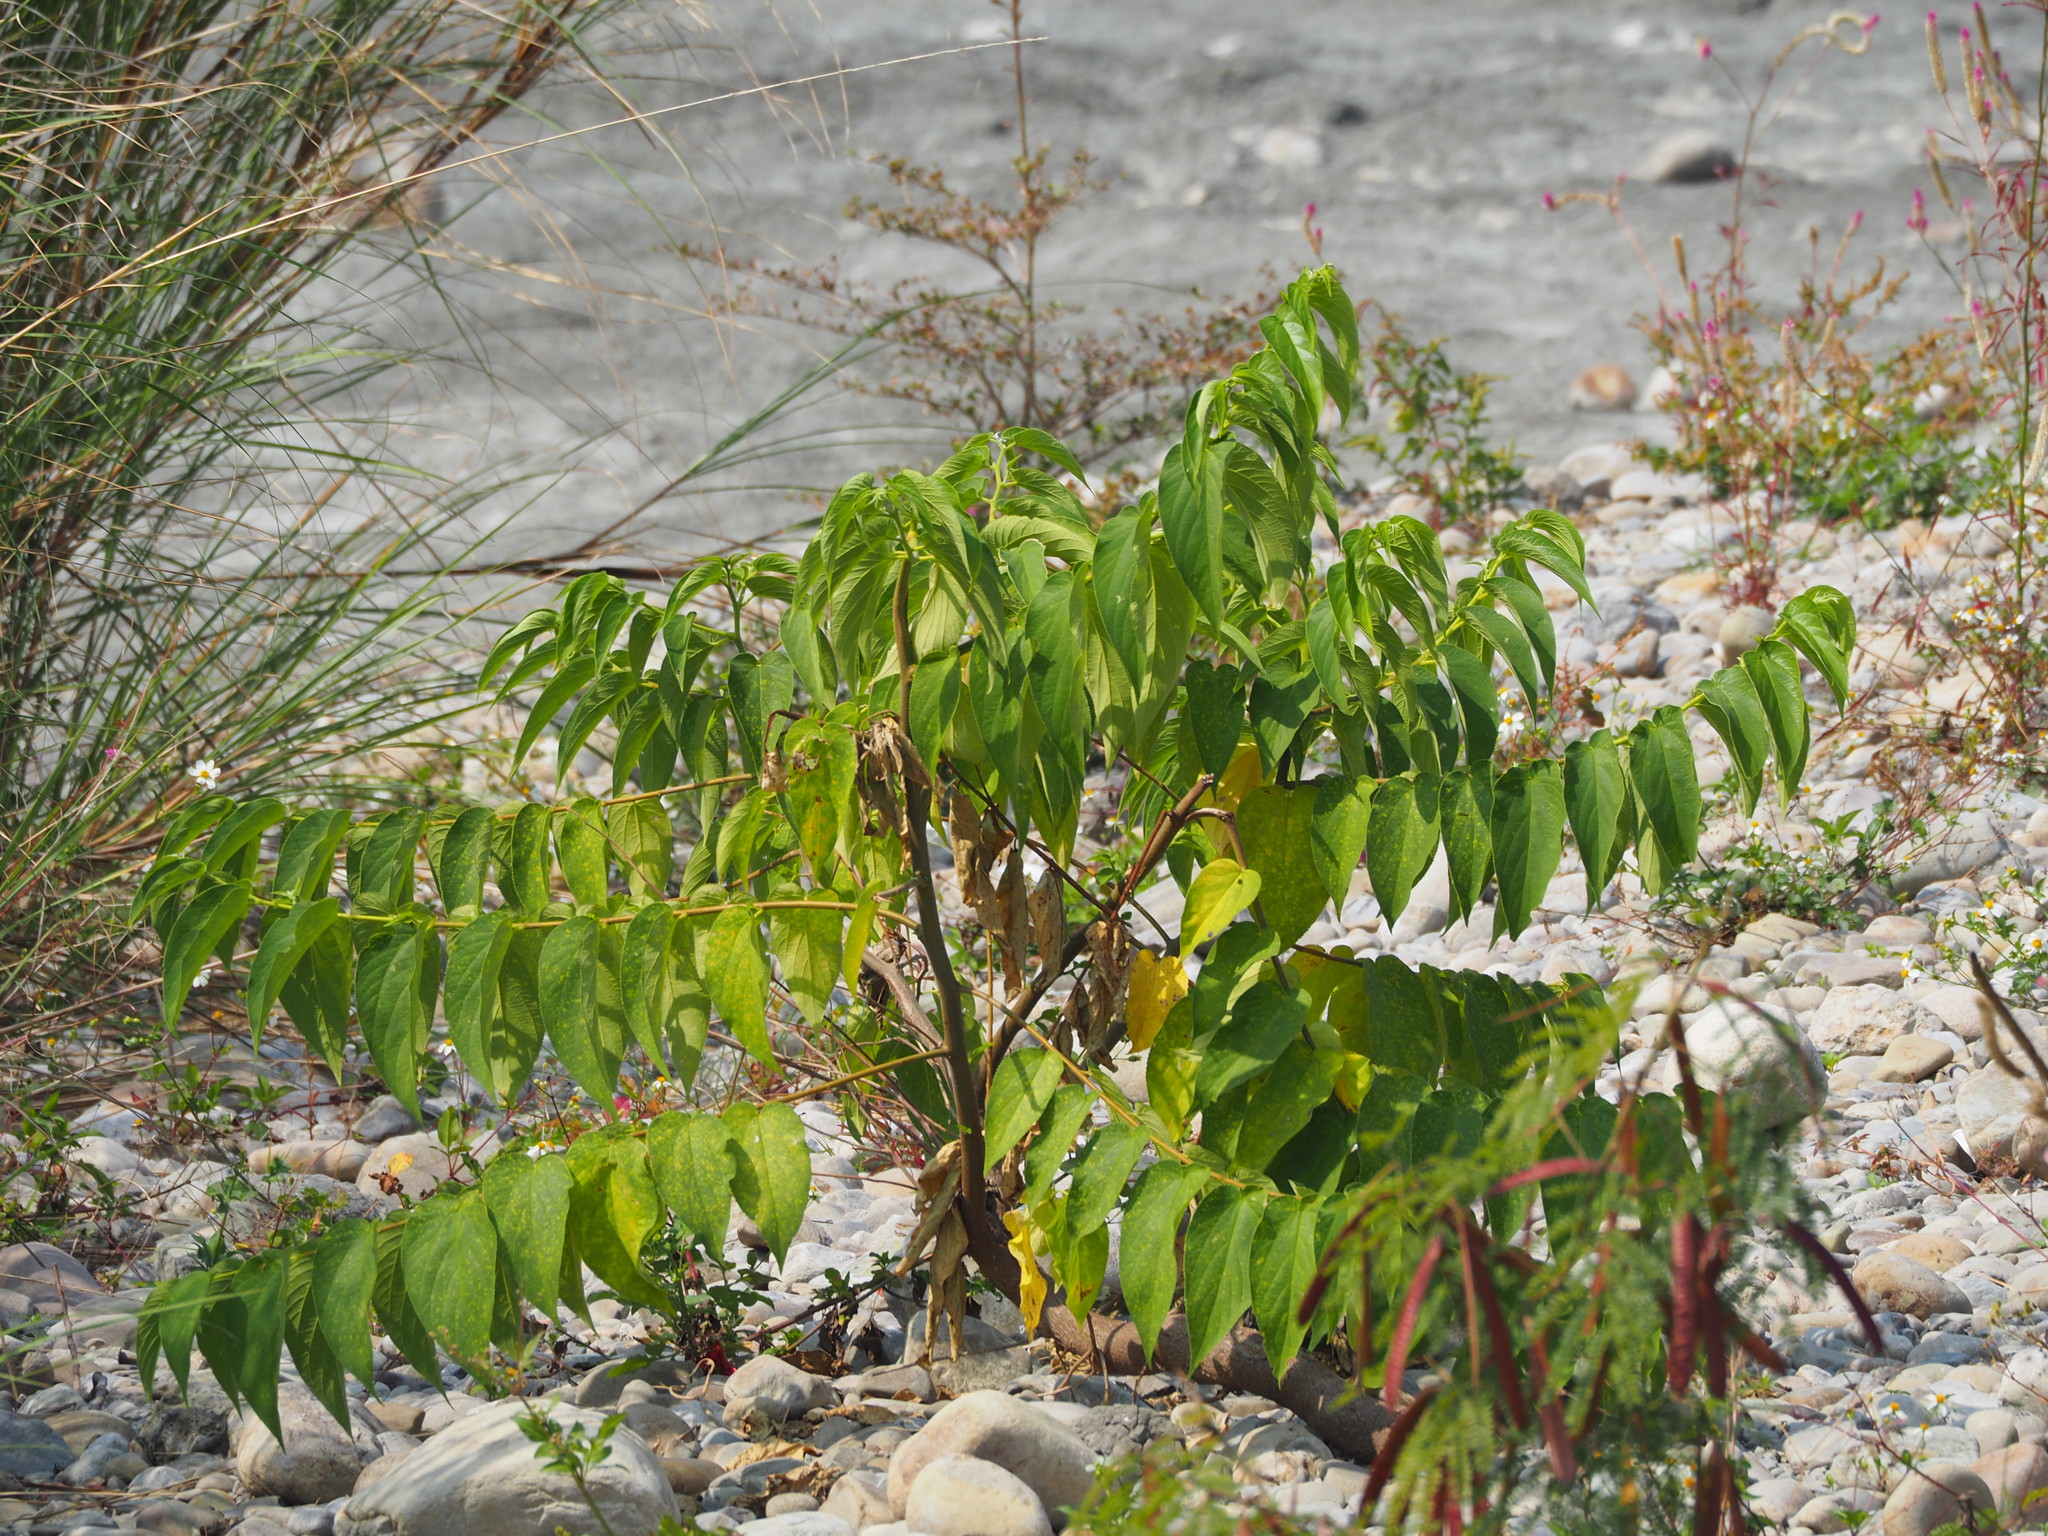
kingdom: Plantae
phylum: Tracheophyta
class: Magnoliopsida
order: Rosales
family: Cannabaceae
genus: Trema
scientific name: Trema orientale
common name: Indian charcoal tree
